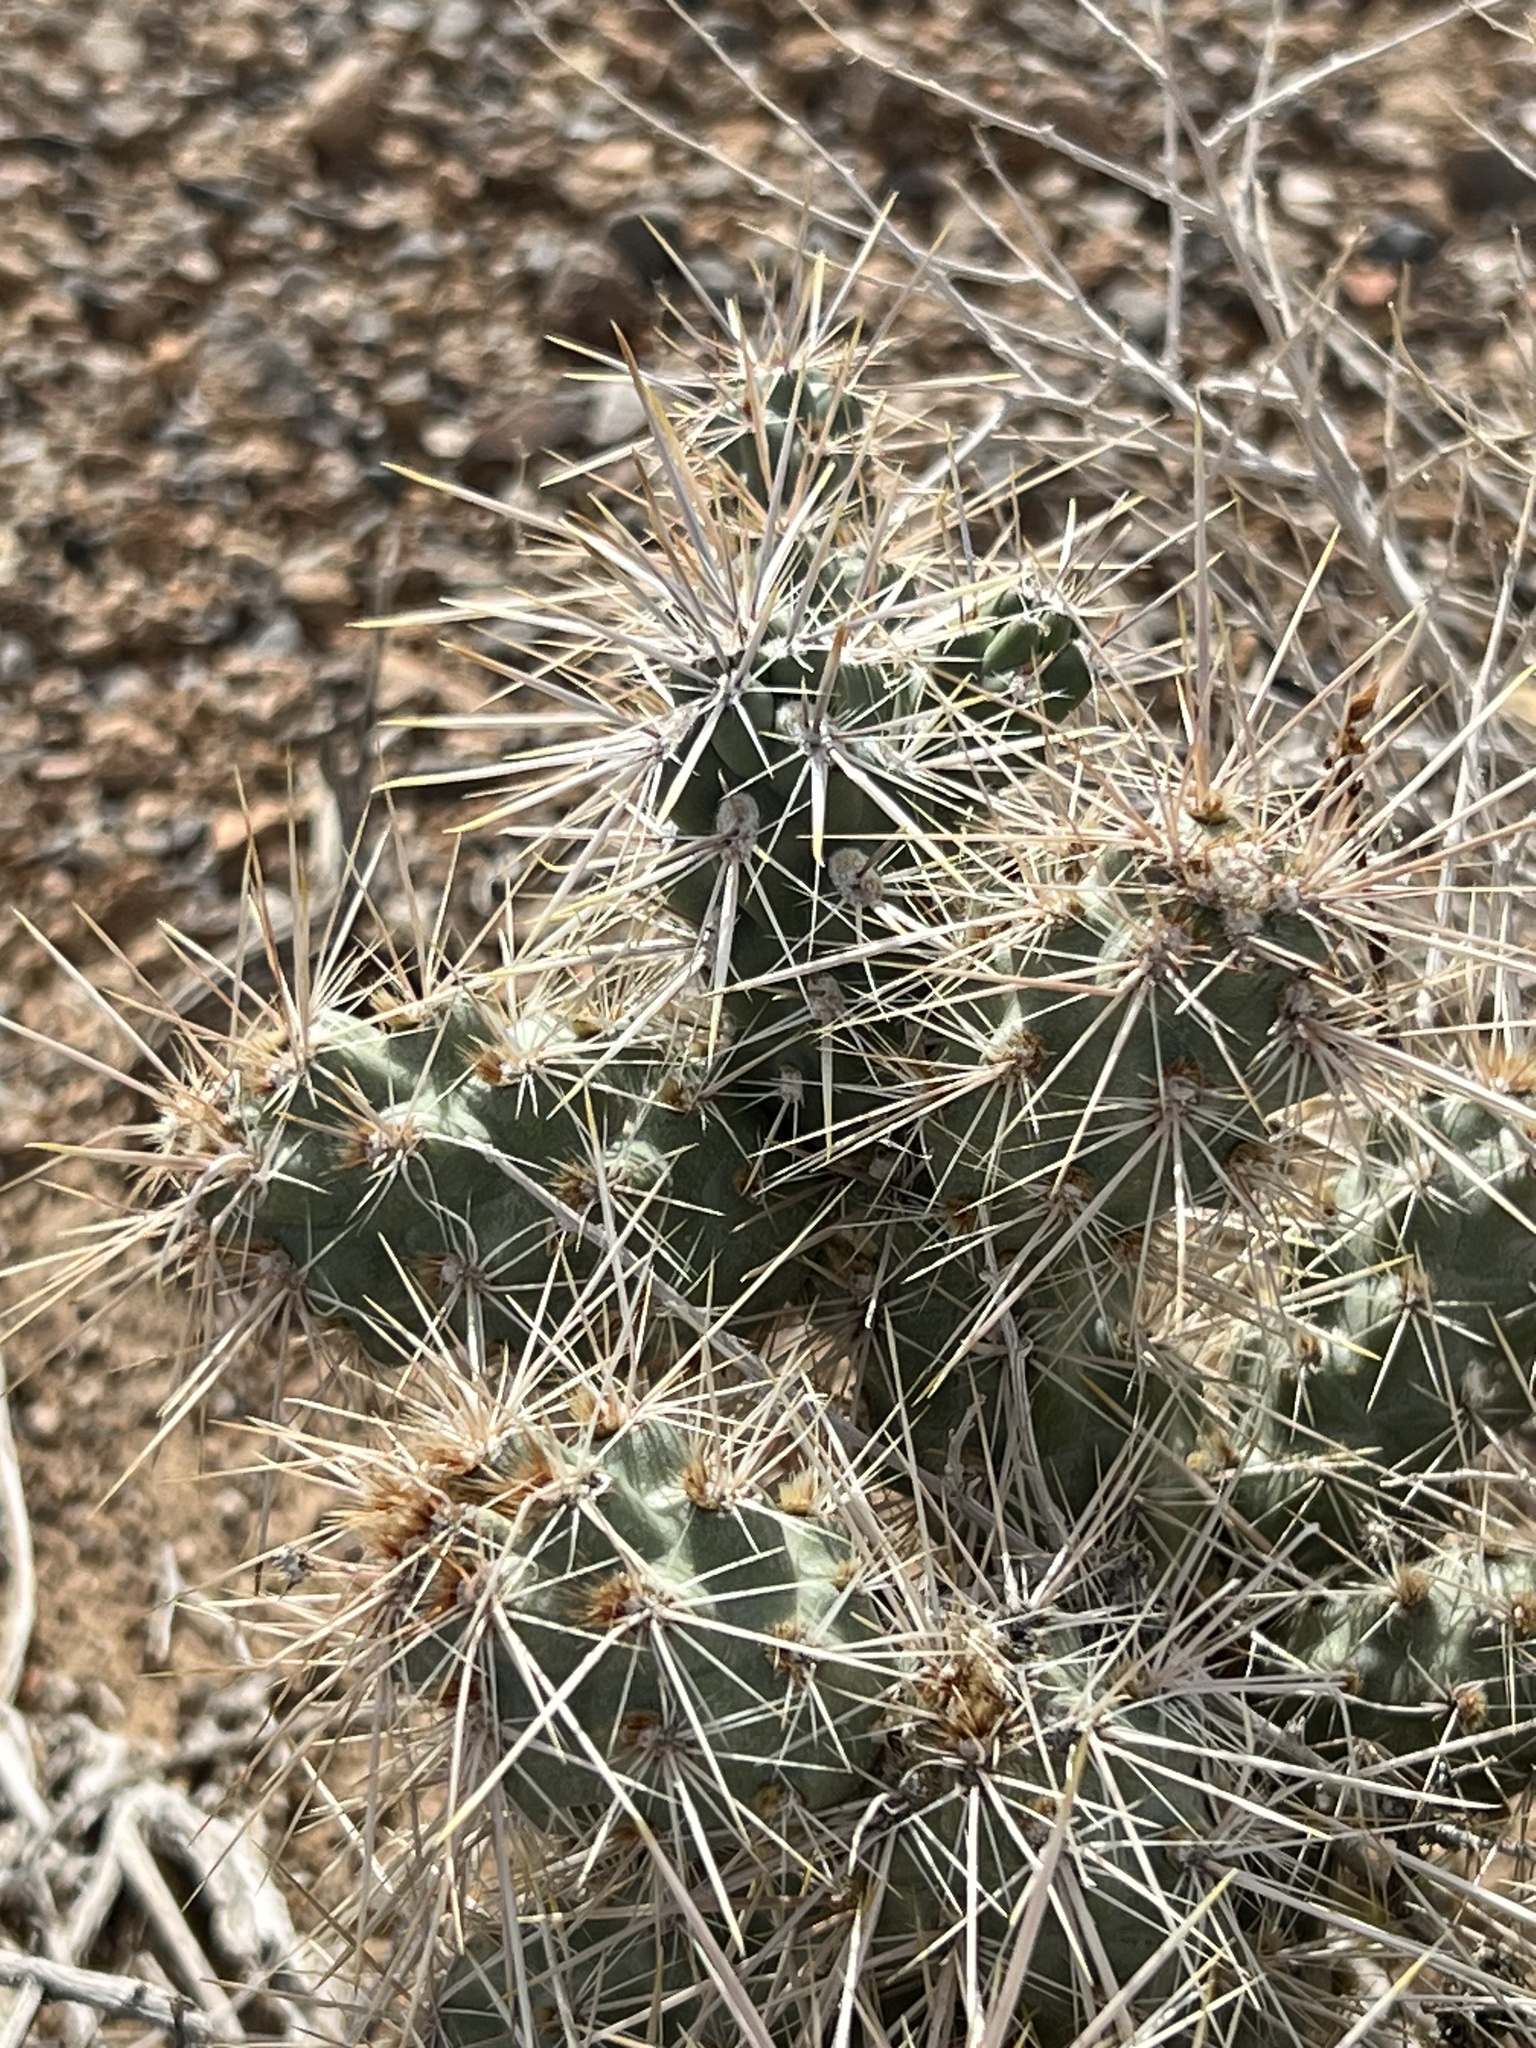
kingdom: Plantae
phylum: Tracheophyta
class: Magnoliopsida
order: Caryophyllales
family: Cactaceae
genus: Cylindropuntia
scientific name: Cylindropuntia echinocarpa
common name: Ground cholla
